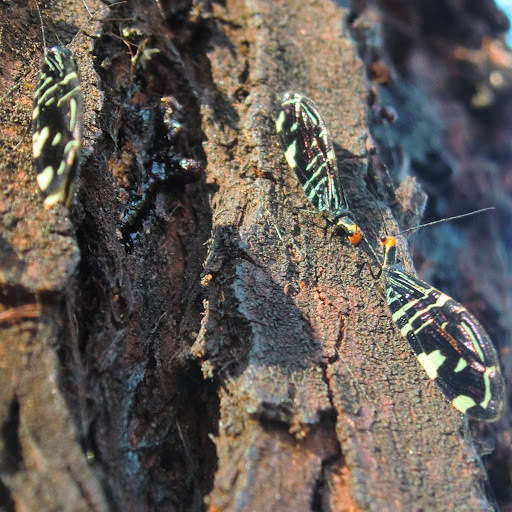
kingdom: Animalia
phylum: Arthropoda
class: Insecta
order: Neuroptera
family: Osmylidae
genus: Porismus
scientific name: Porismus strigatus
